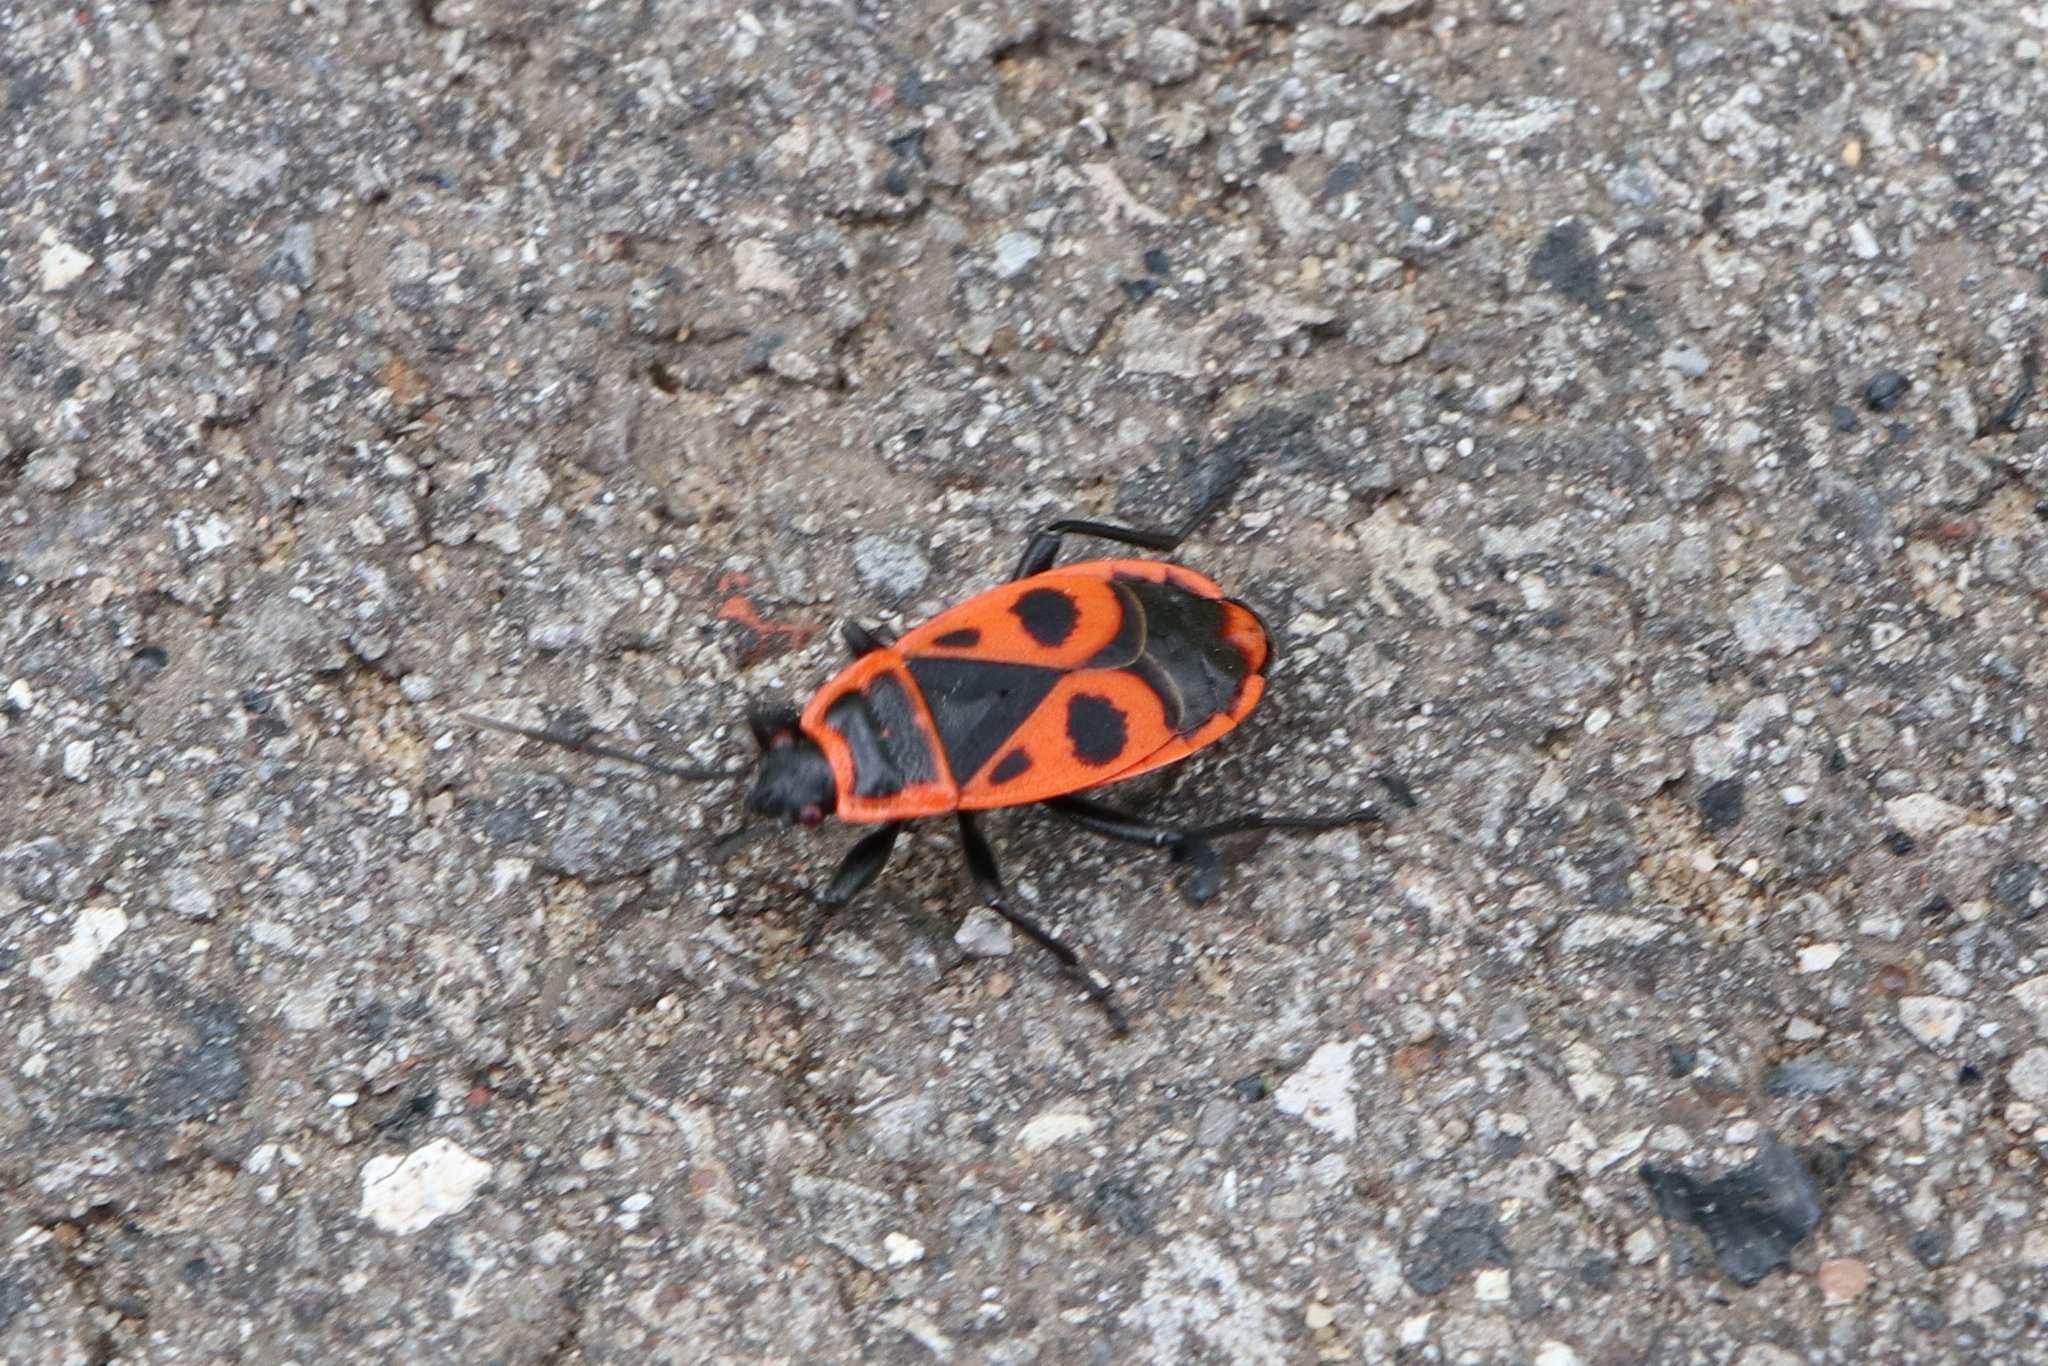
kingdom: Animalia
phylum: Arthropoda
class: Insecta
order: Hemiptera
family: Pyrrhocoridae
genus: Pyrrhocoris
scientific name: Pyrrhocoris apterus
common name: Firebug
